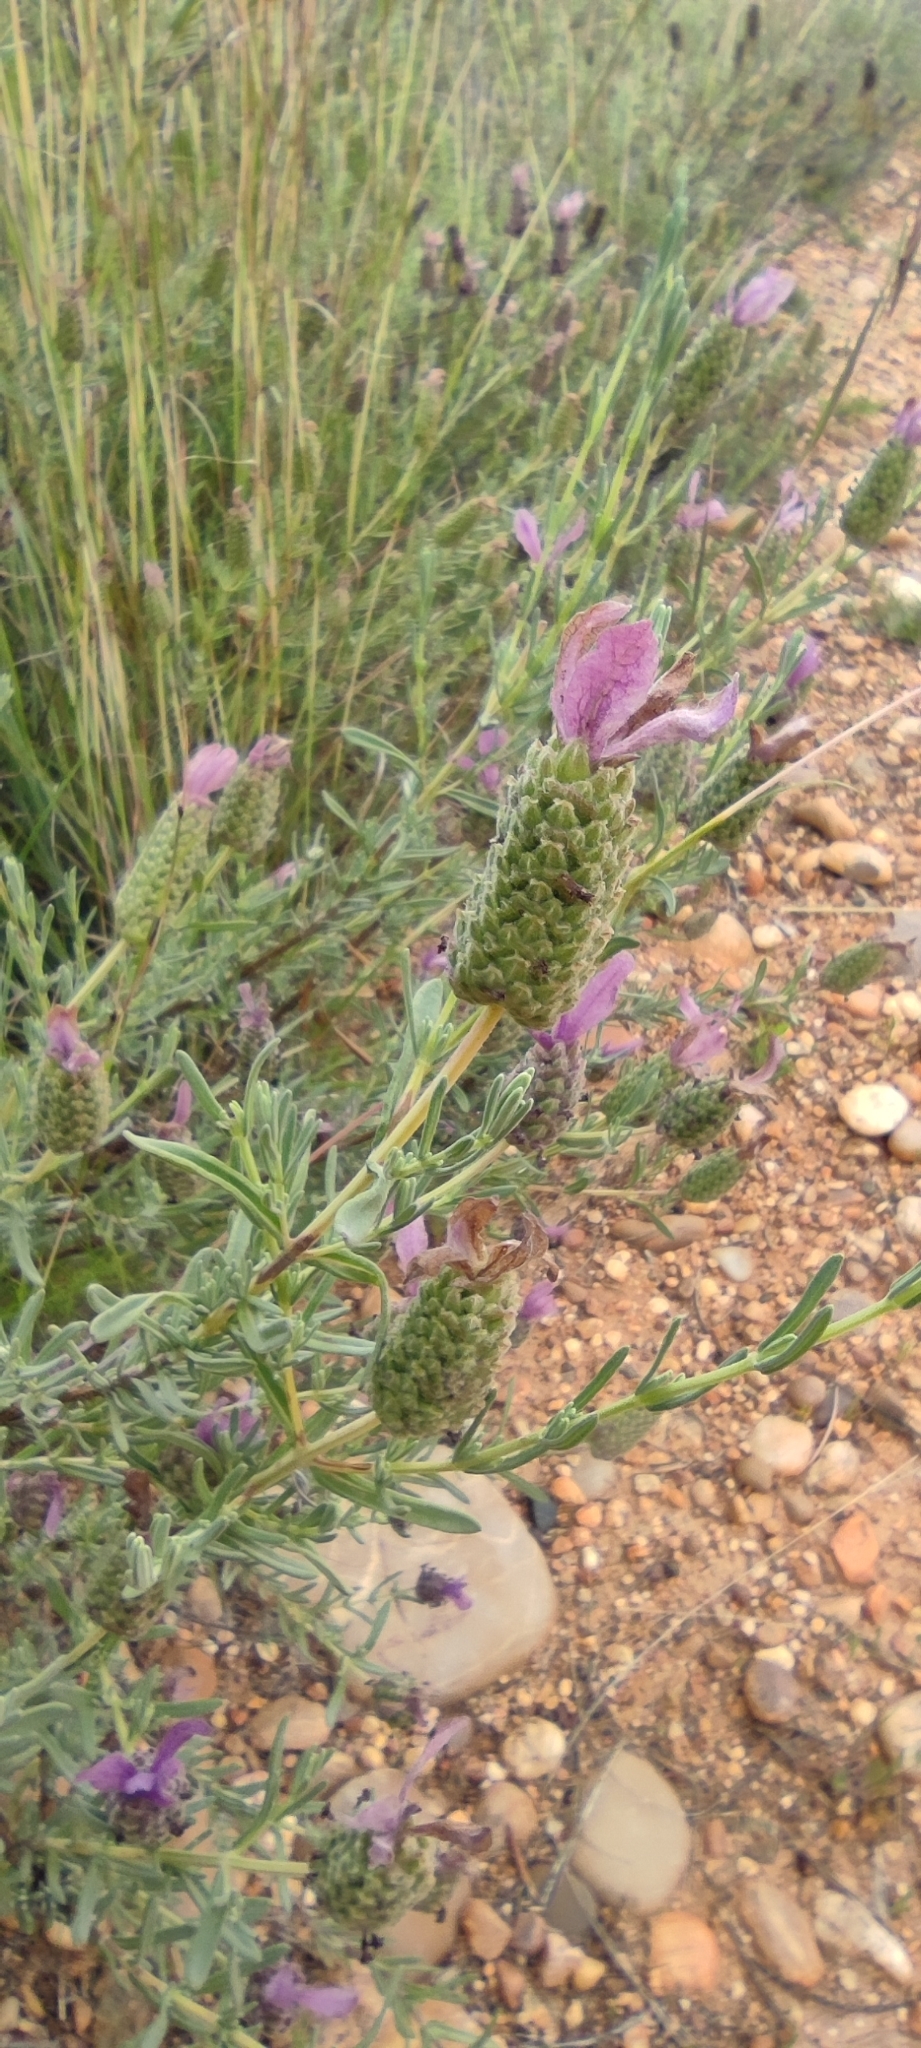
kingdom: Plantae
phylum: Tracheophyta
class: Magnoliopsida
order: Lamiales
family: Lamiaceae
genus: Lavandula
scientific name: Lavandula stoechas
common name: French lavender
